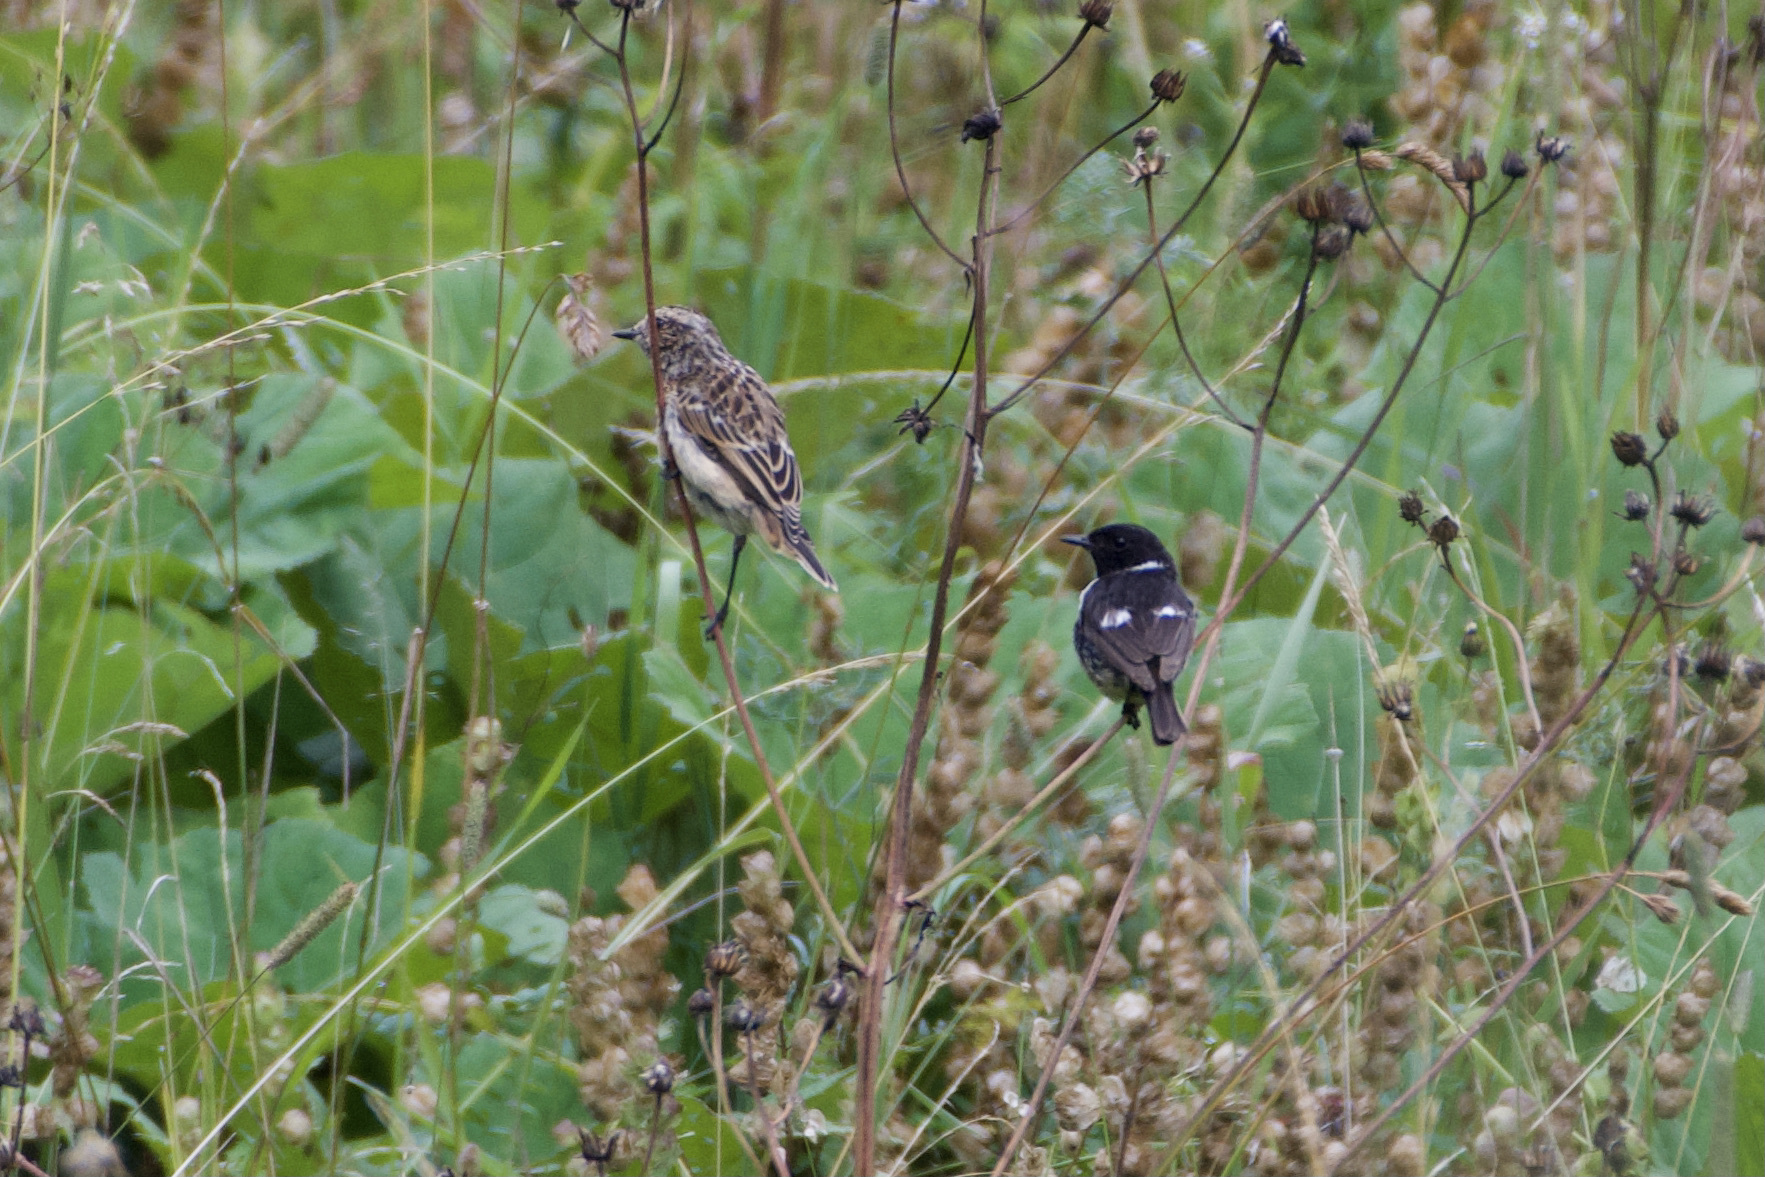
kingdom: Animalia
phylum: Chordata
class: Aves
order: Passeriformes
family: Muscicapidae
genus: Saxicola
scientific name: Saxicola rubicola
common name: European stonechat
